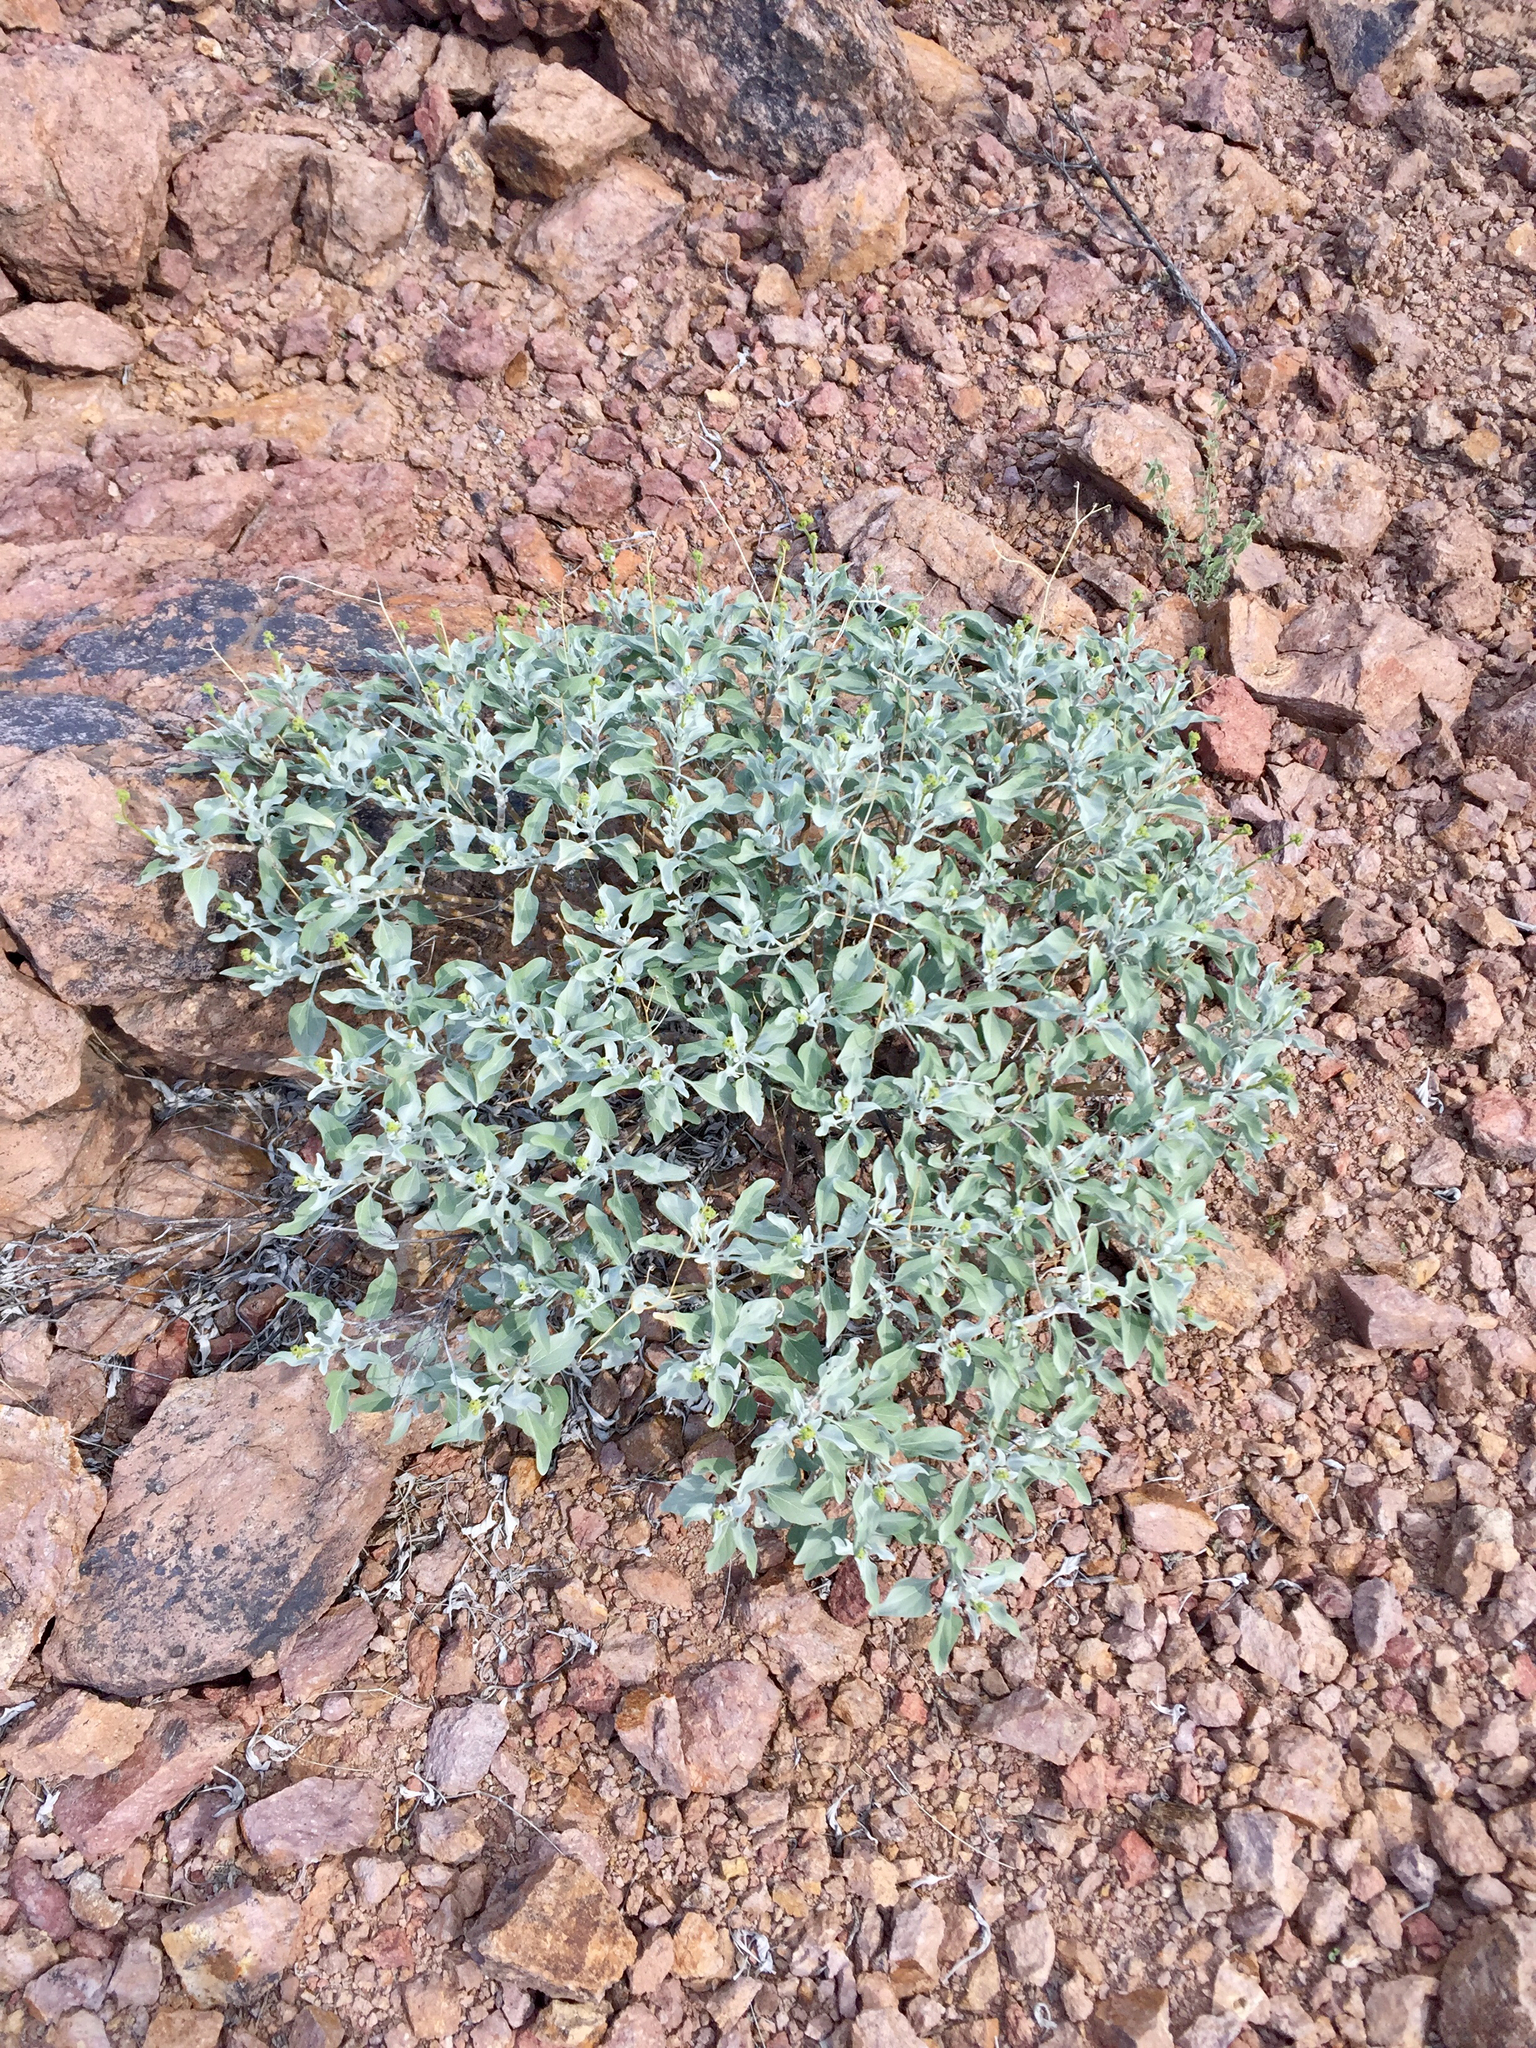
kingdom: Plantae
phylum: Tracheophyta
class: Magnoliopsida
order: Asterales
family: Asteraceae
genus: Encelia
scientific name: Encelia farinosa
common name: Brittlebush
